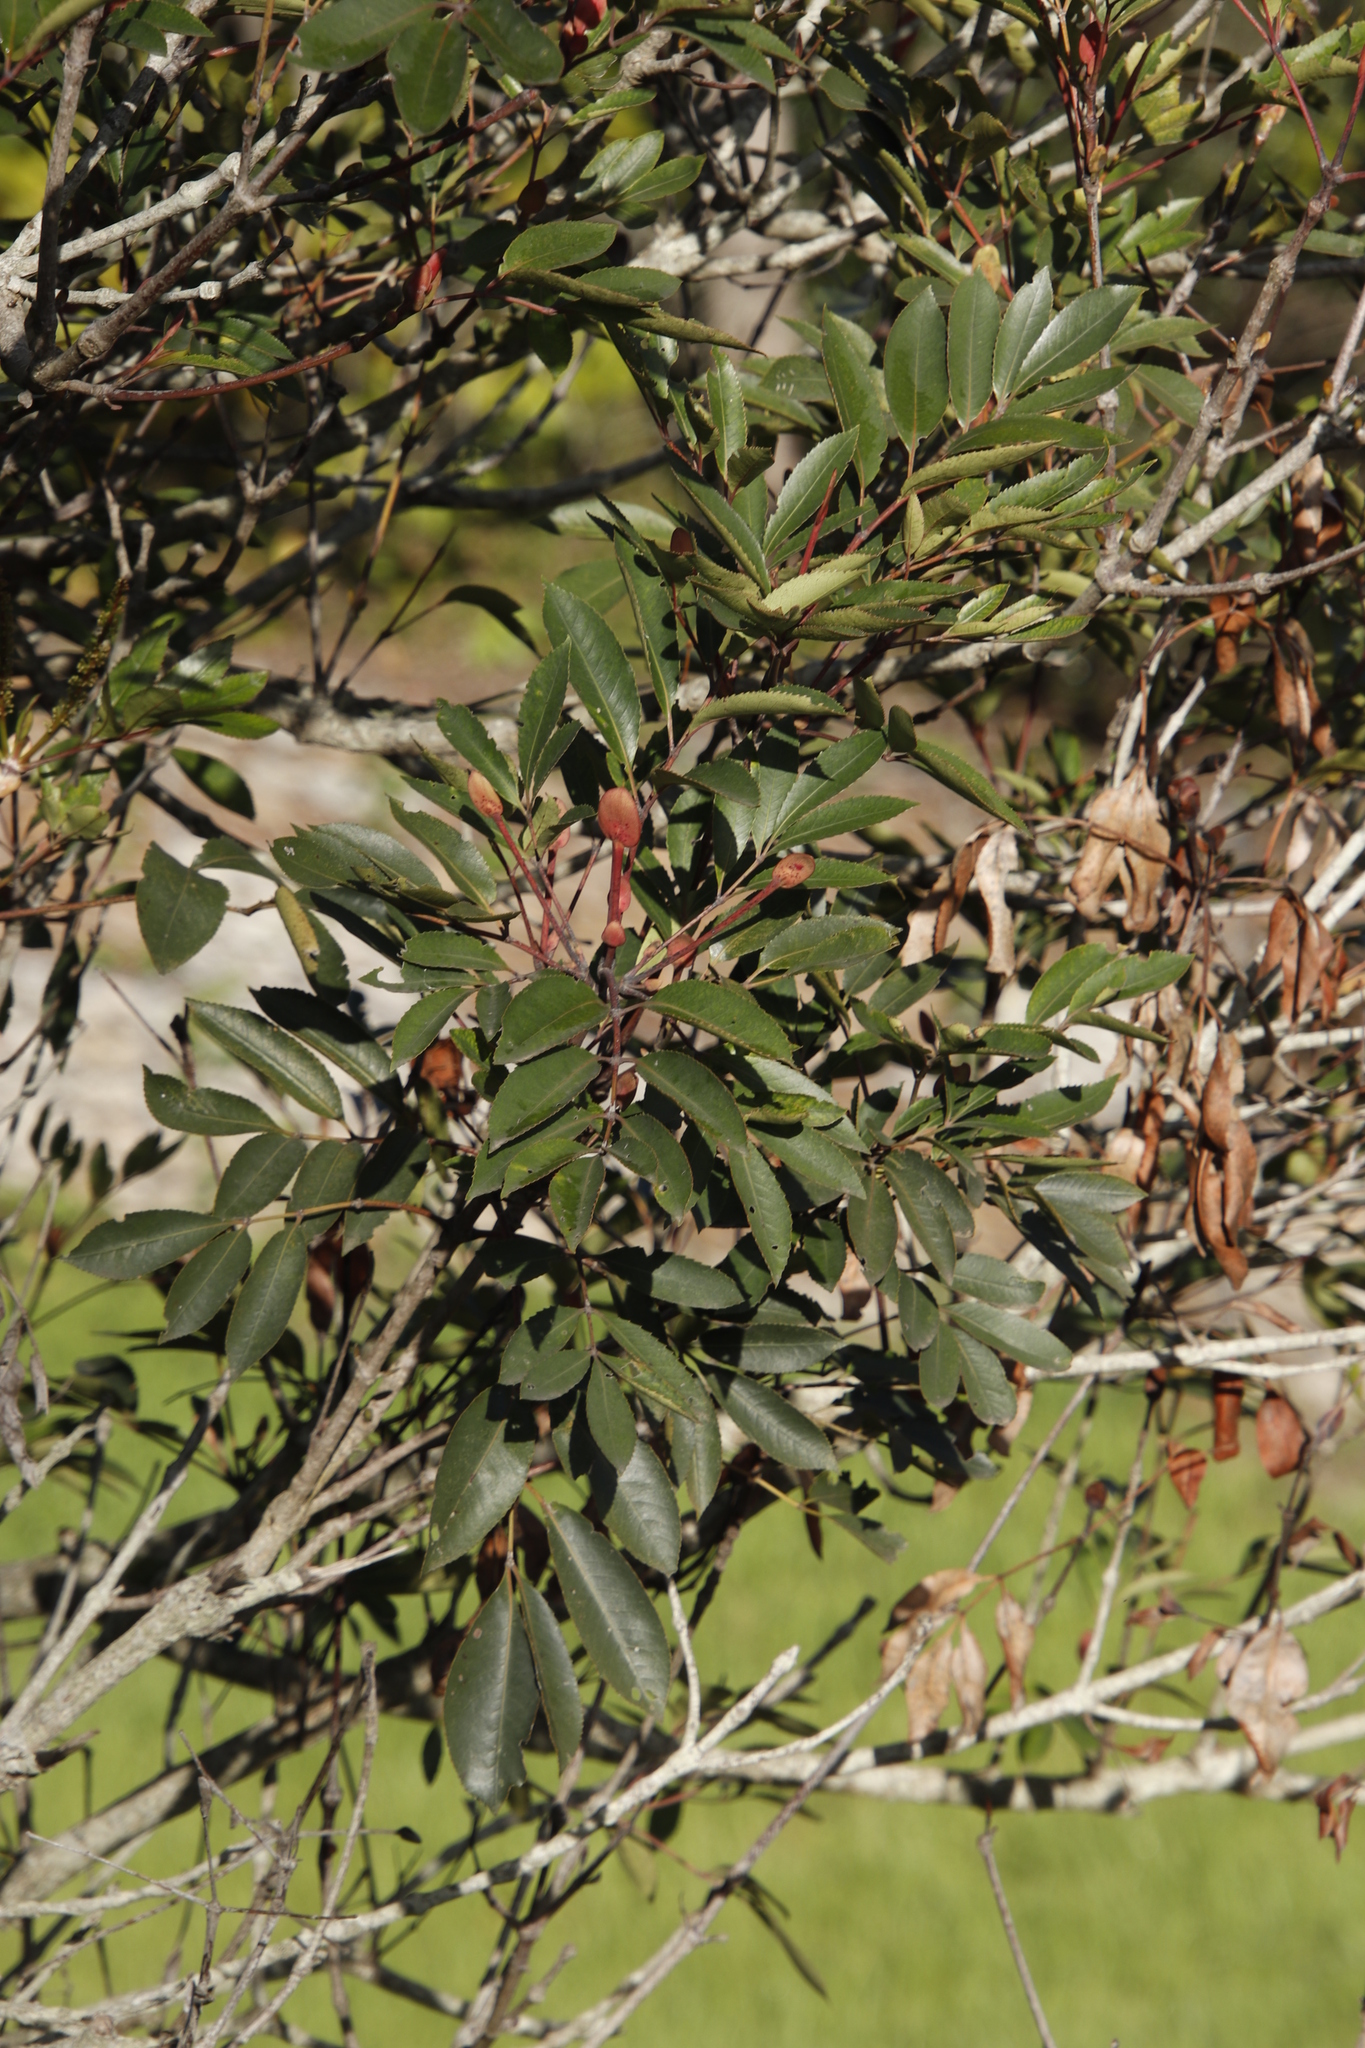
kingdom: Plantae
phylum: Tracheophyta
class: Magnoliopsida
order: Oxalidales
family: Cunoniaceae
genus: Cunonia
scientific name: Cunonia capensis
